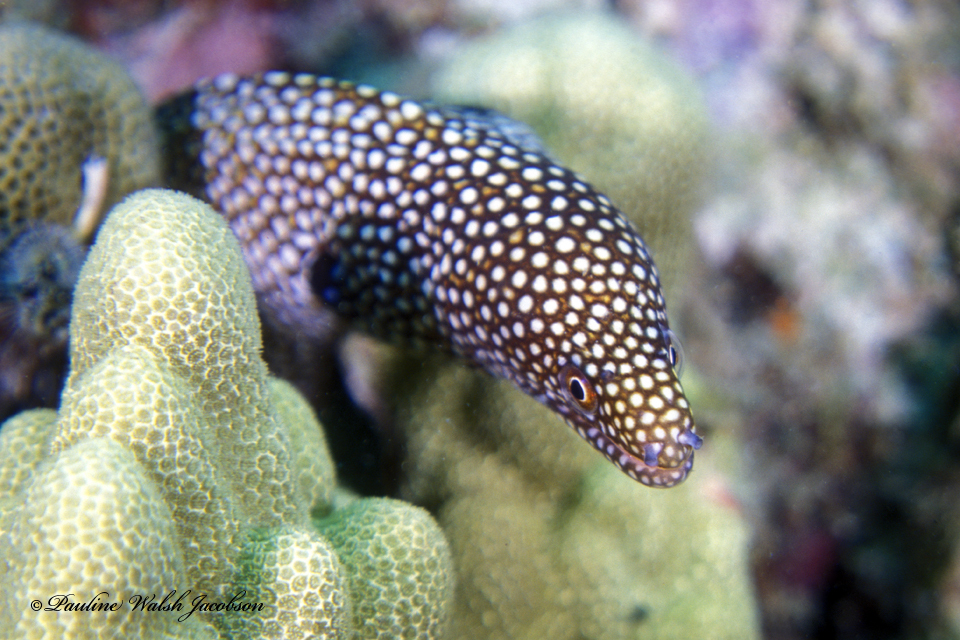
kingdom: Animalia
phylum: Chordata
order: Anguilliformes
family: Muraenidae
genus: Gymnothorax
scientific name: Gymnothorax meleagris
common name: Guineafowl moray
